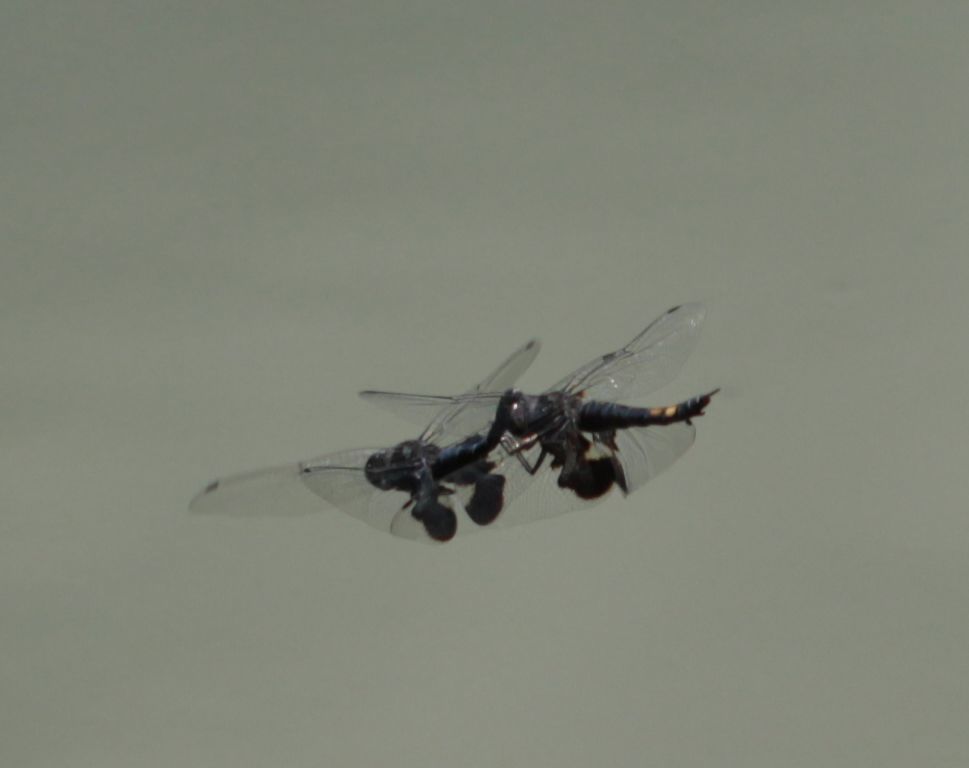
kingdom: Animalia
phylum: Arthropoda
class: Insecta
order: Odonata
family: Libellulidae
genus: Tramea
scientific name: Tramea lacerata
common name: Black saddlebags
